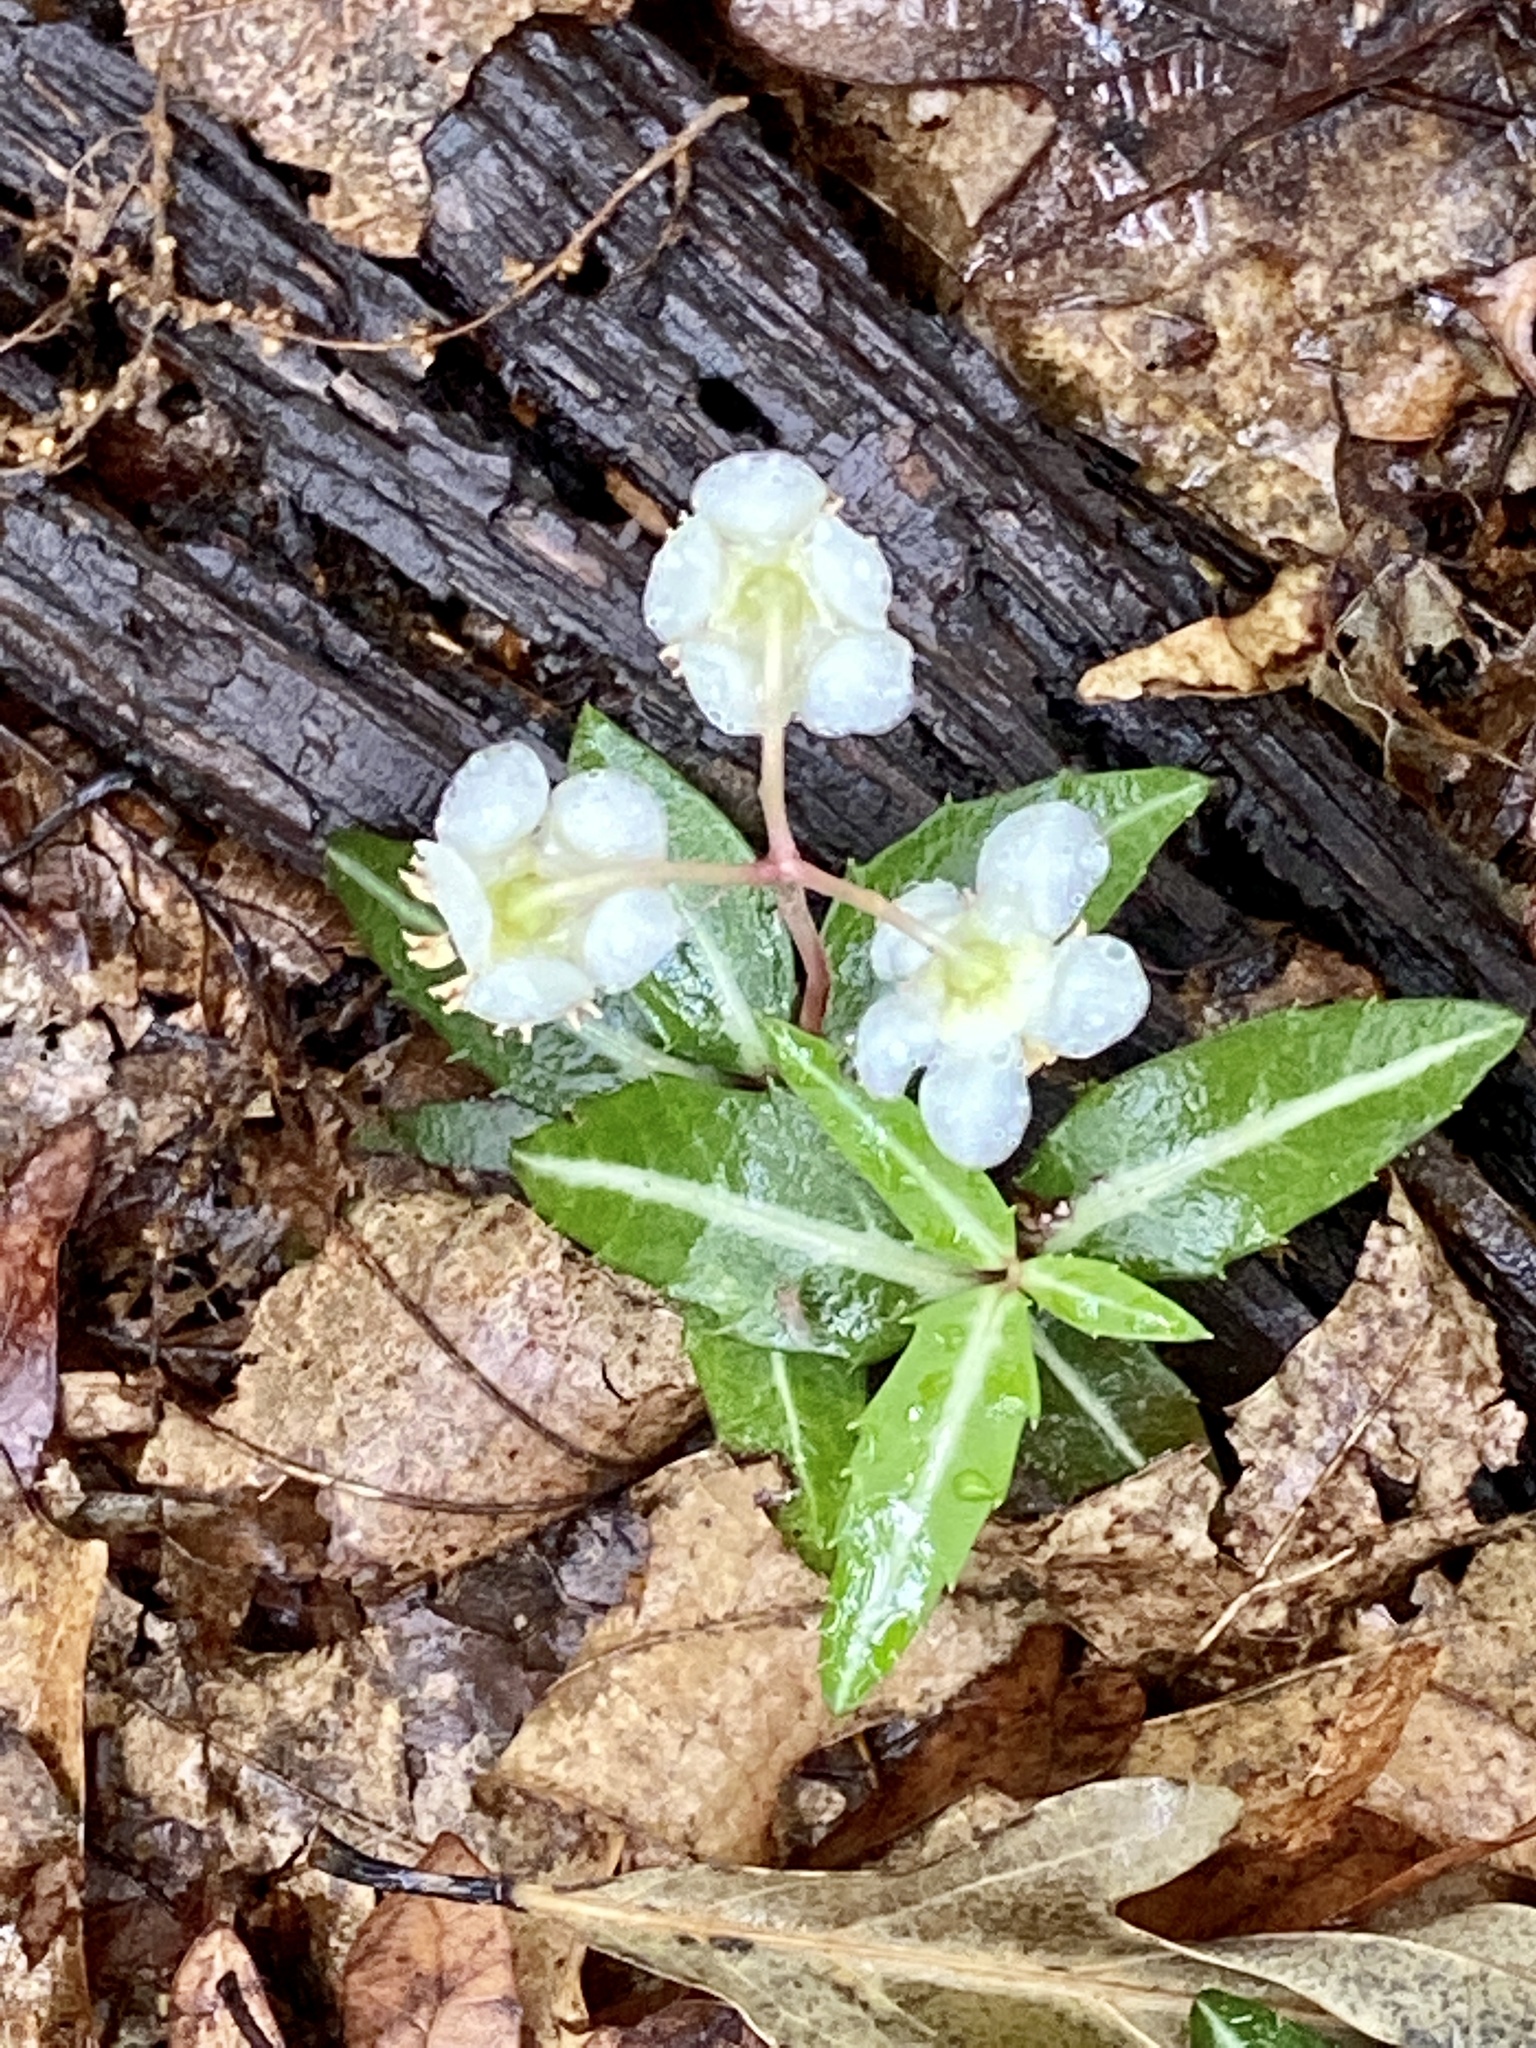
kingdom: Plantae
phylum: Tracheophyta
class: Magnoliopsida
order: Ericales
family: Ericaceae
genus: Chimaphila
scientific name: Chimaphila maculata
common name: Spotted pipsissewa
